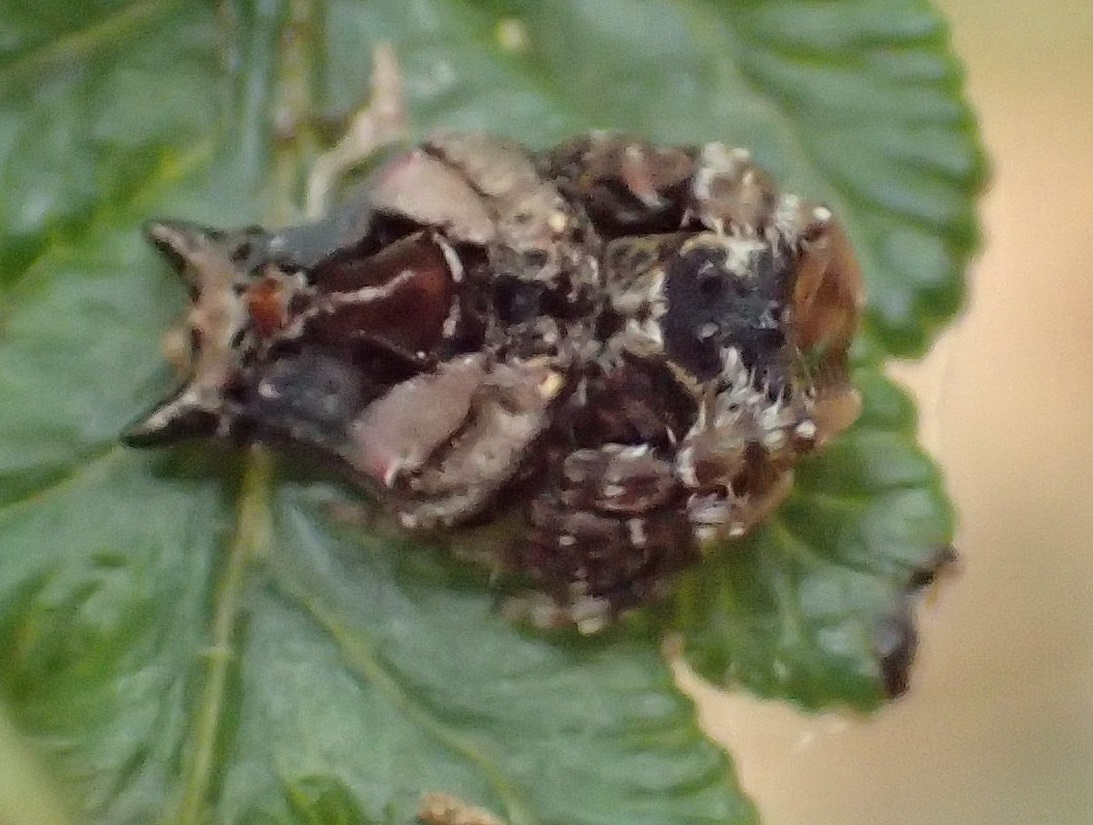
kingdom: Animalia
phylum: Arthropoda
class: Arachnida
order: Araneae
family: Arkyidae
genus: Arkys
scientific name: Arkys alticephala
